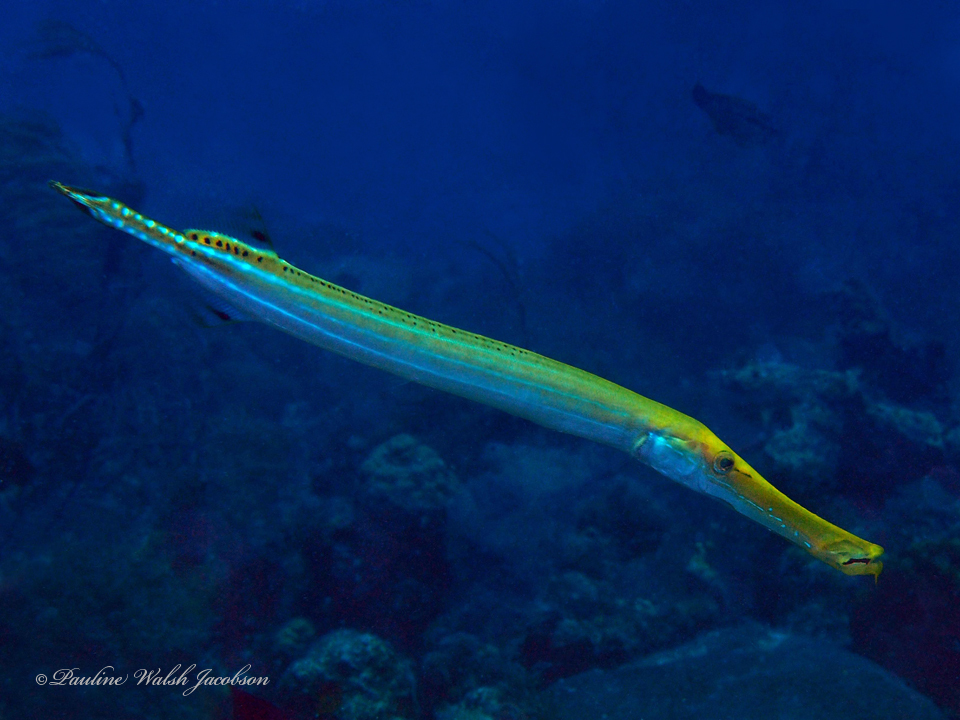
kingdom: Animalia
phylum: Chordata
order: Syngnathiformes
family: Aulostomidae
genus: Aulostomus
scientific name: Aulostomus maculatus
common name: West atlantic trumpetfish
